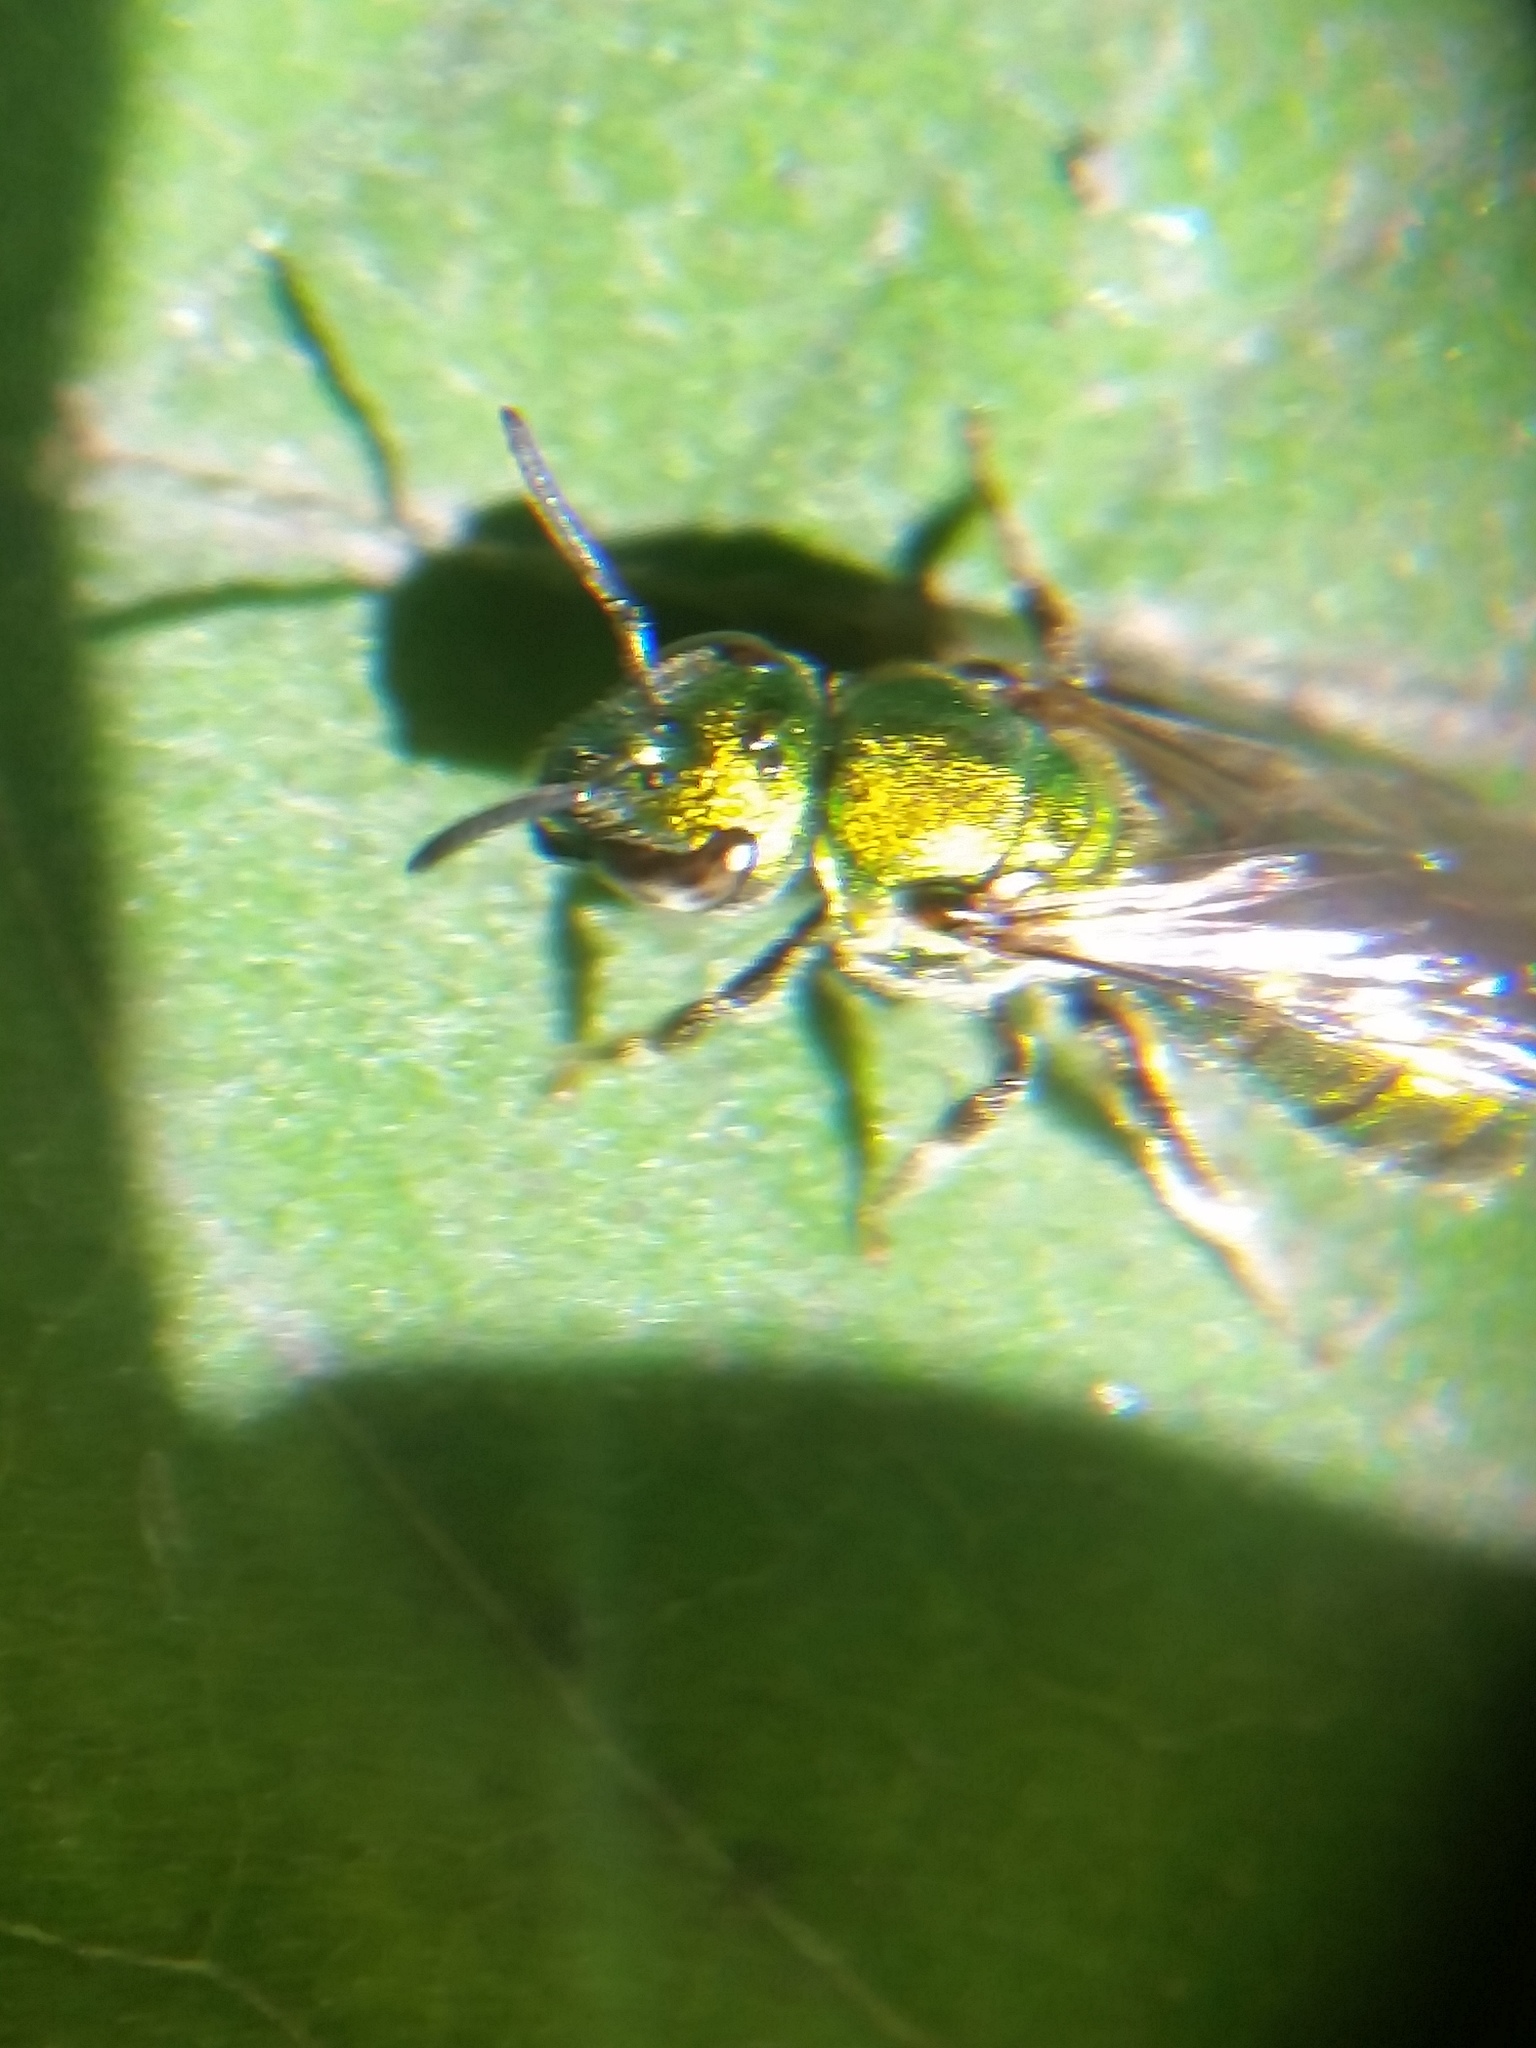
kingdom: Animalia
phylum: Arthropoda
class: Insecta
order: Hymenoptera
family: Halictidae
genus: Augochlora
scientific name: Augochlora pura
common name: Pure green sweat bee
